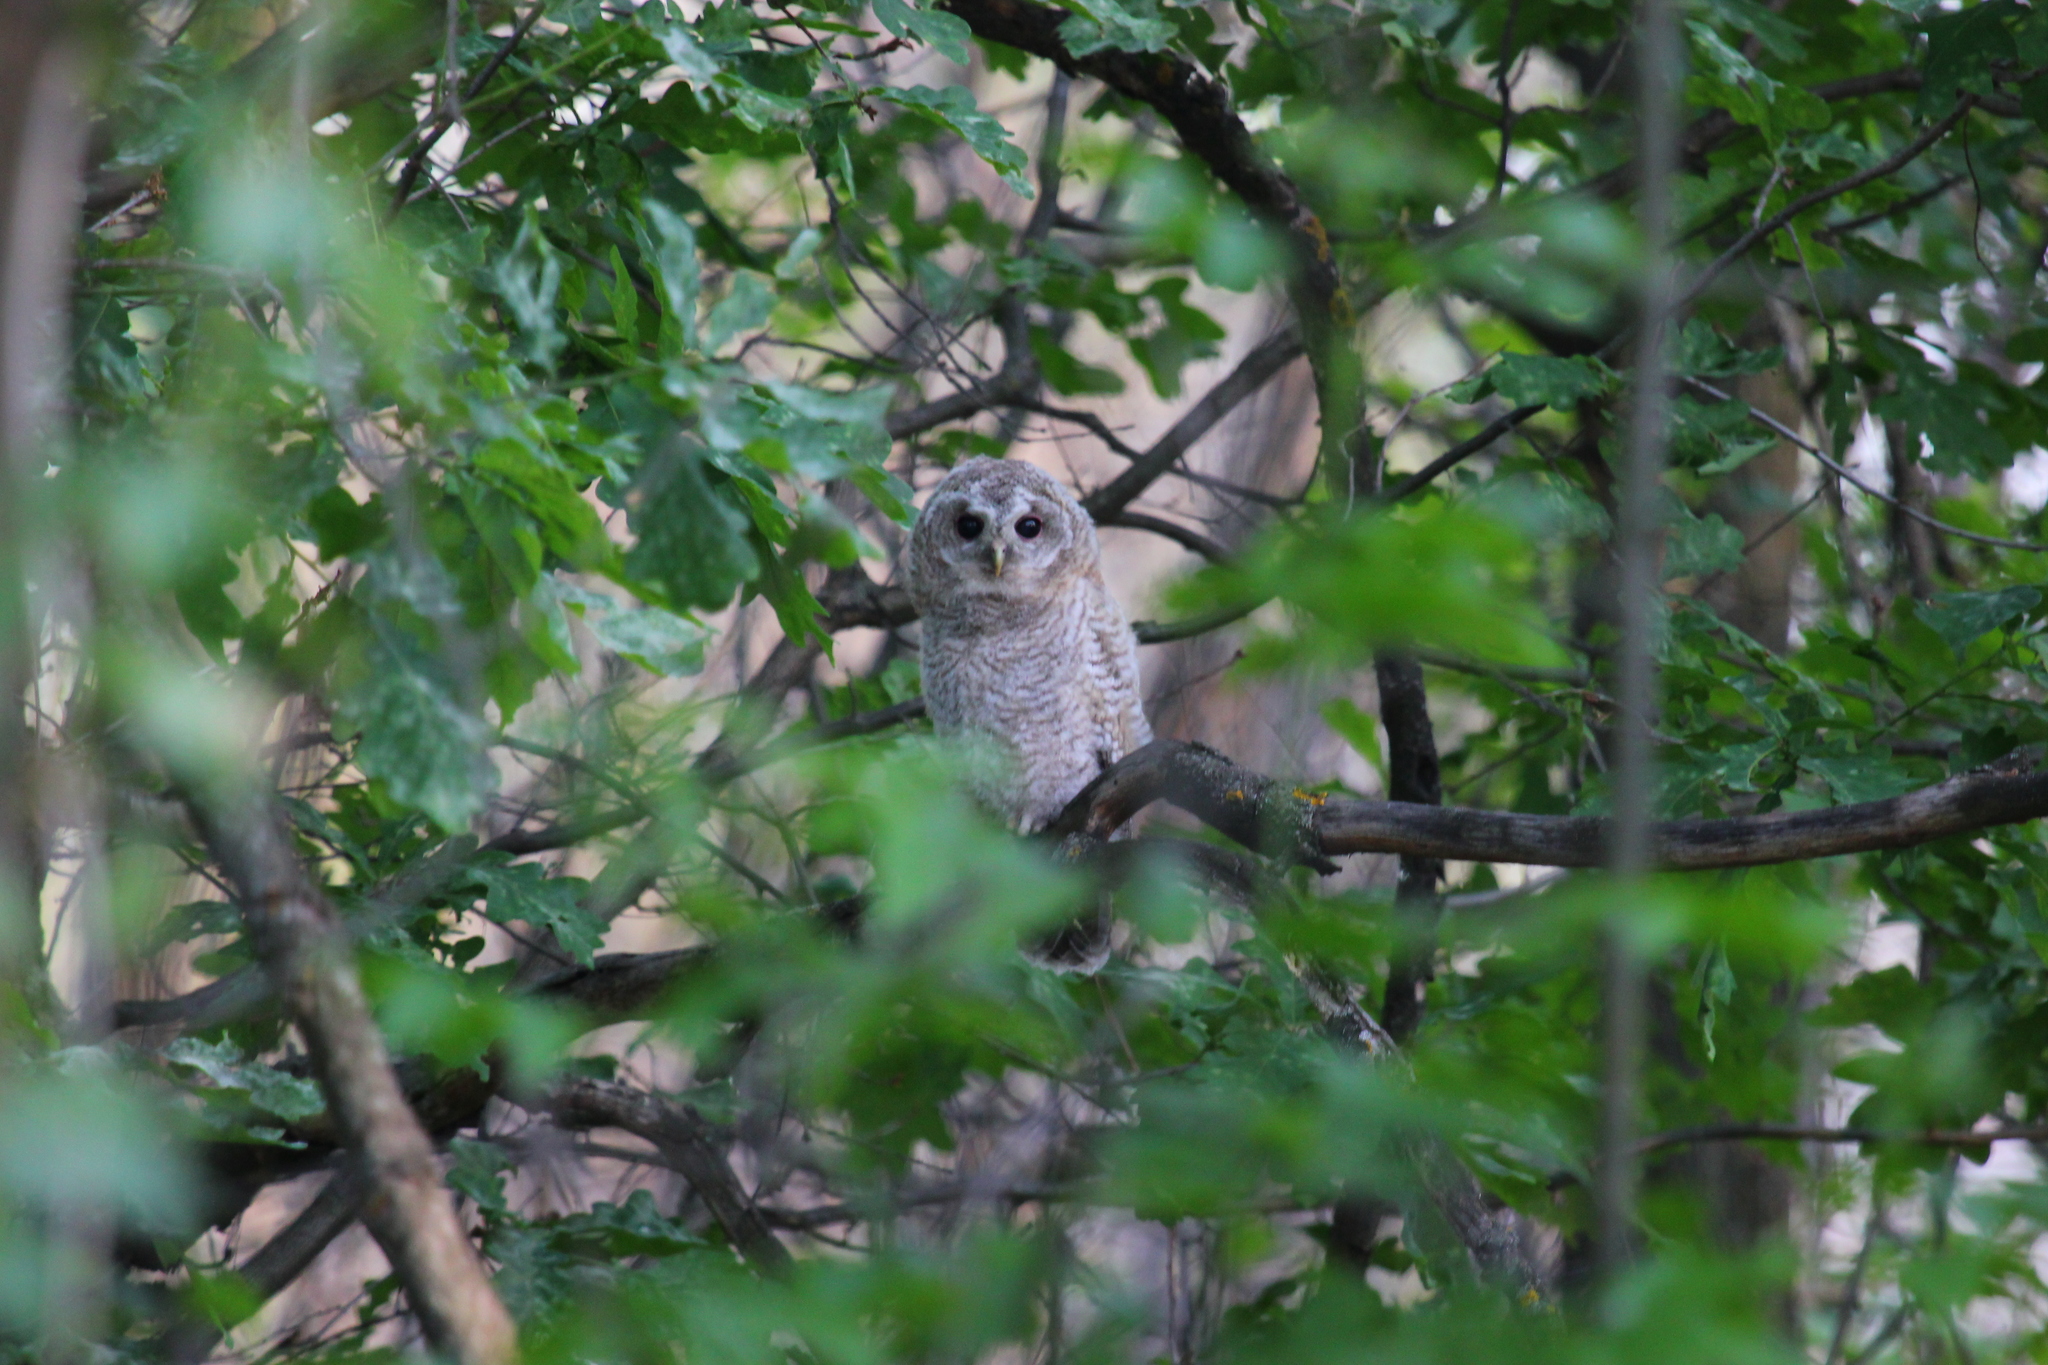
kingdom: Animalia
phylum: Chordata
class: Aves
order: Strigiformes
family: Strigidae
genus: Strix
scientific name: Strix aluco
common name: Tawny owl
